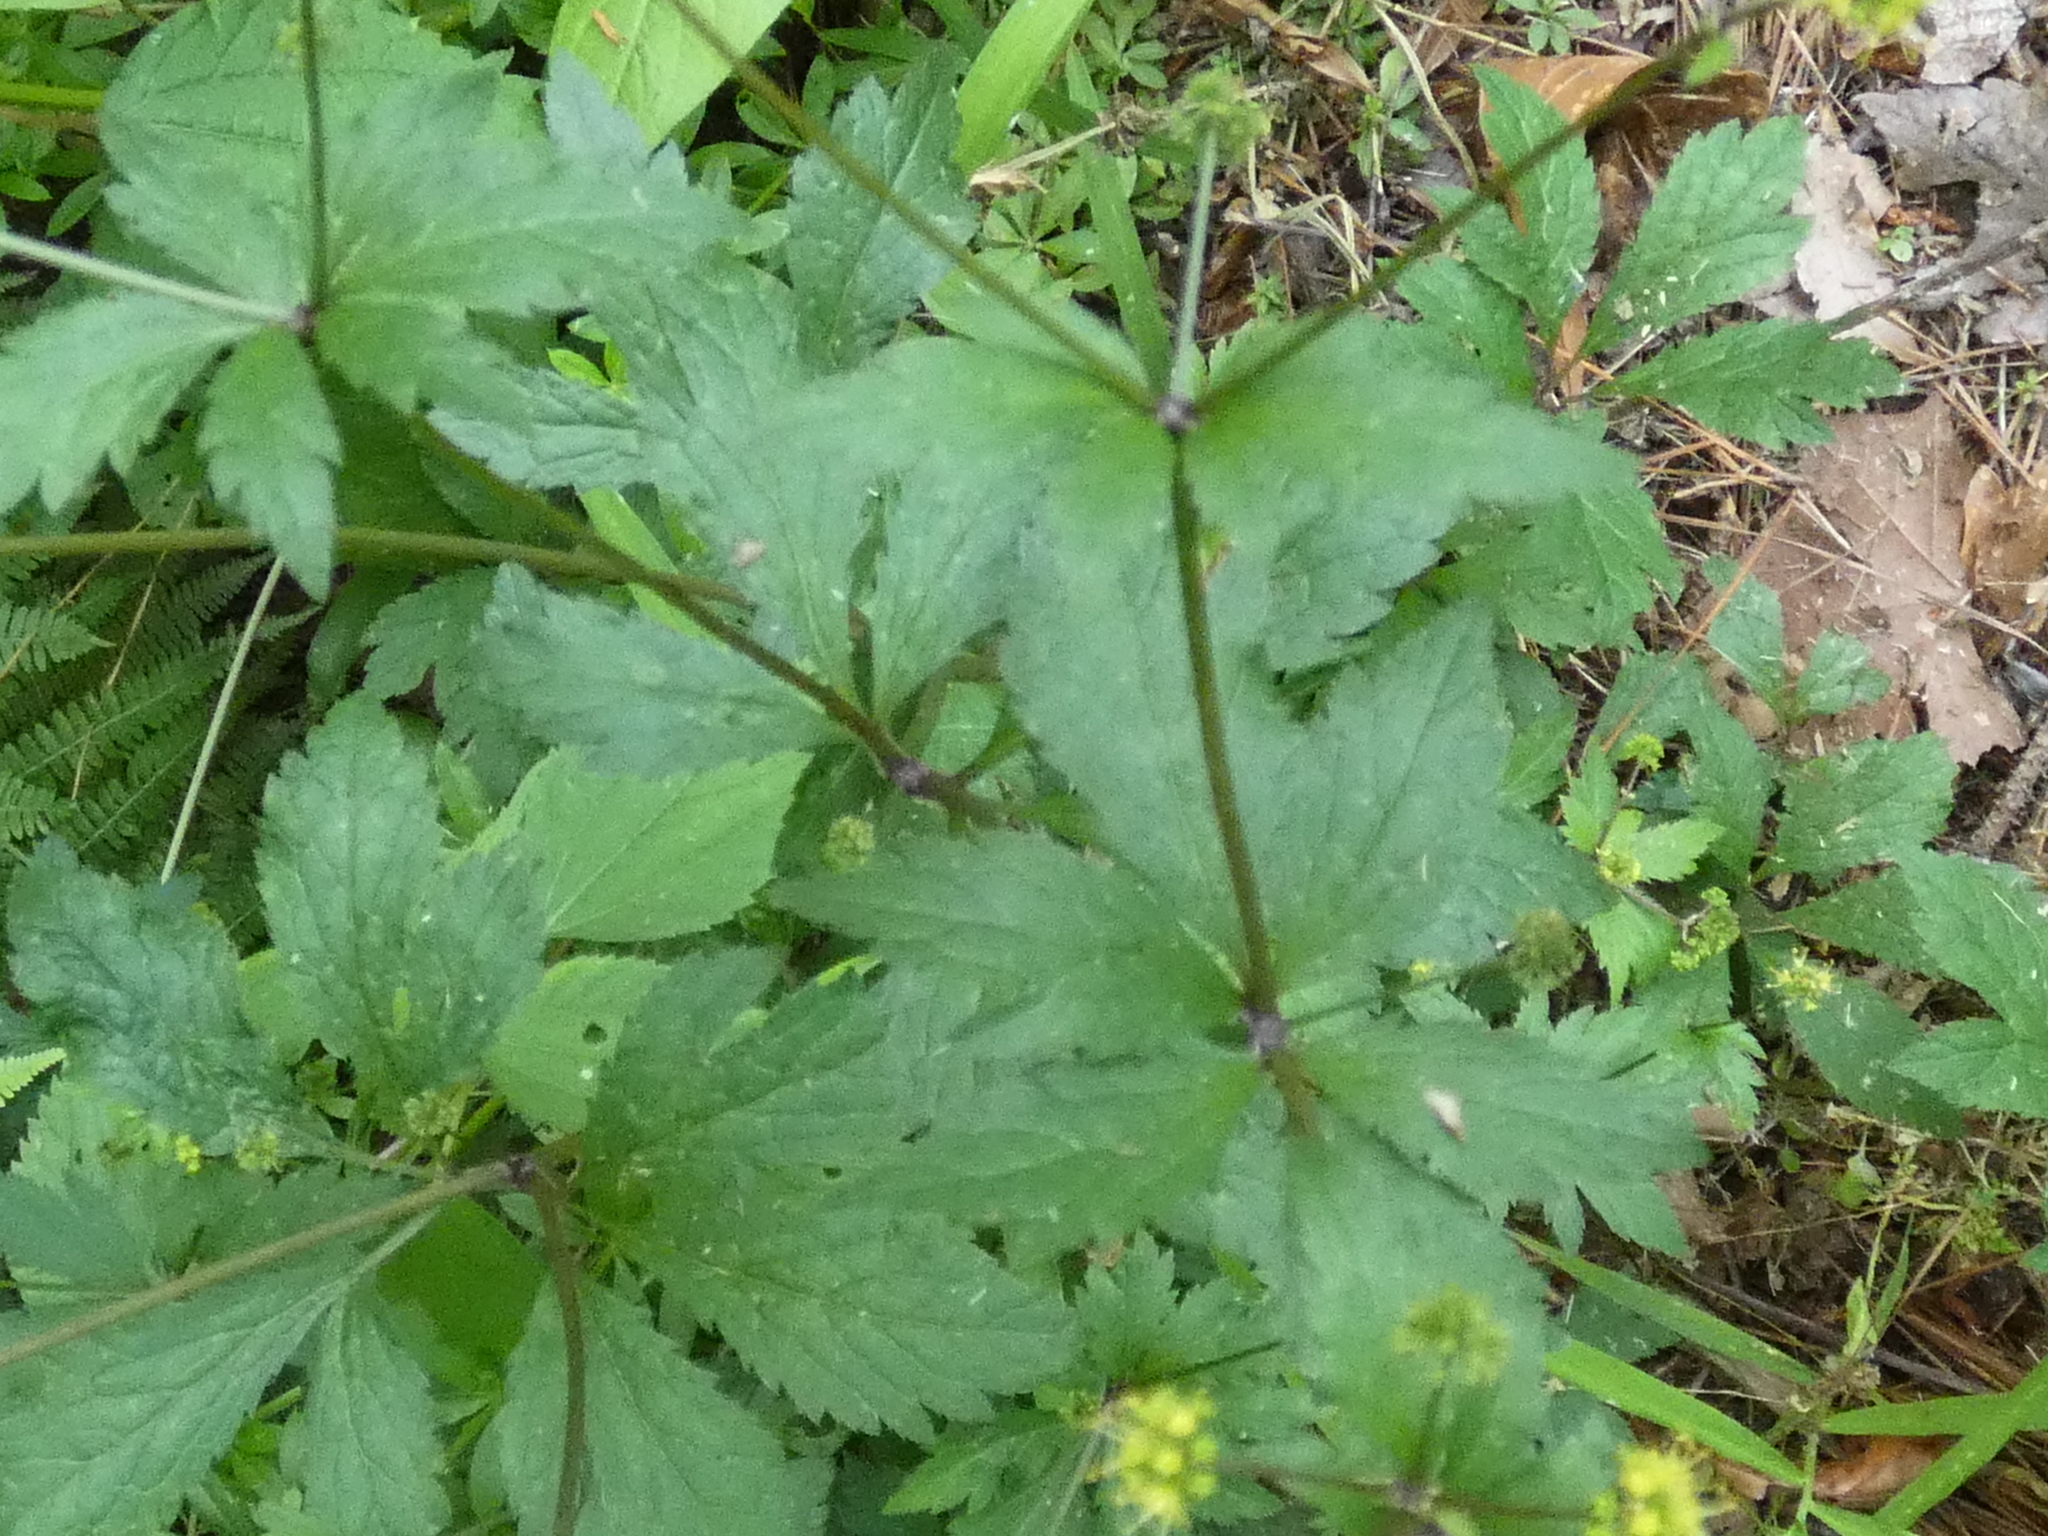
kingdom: Plantae
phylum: Tracheophyta
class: Magnoliopsida
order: Apiales
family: Apiaceae
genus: Sanicula
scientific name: Sanicula odorata
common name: Cluster sanicle
